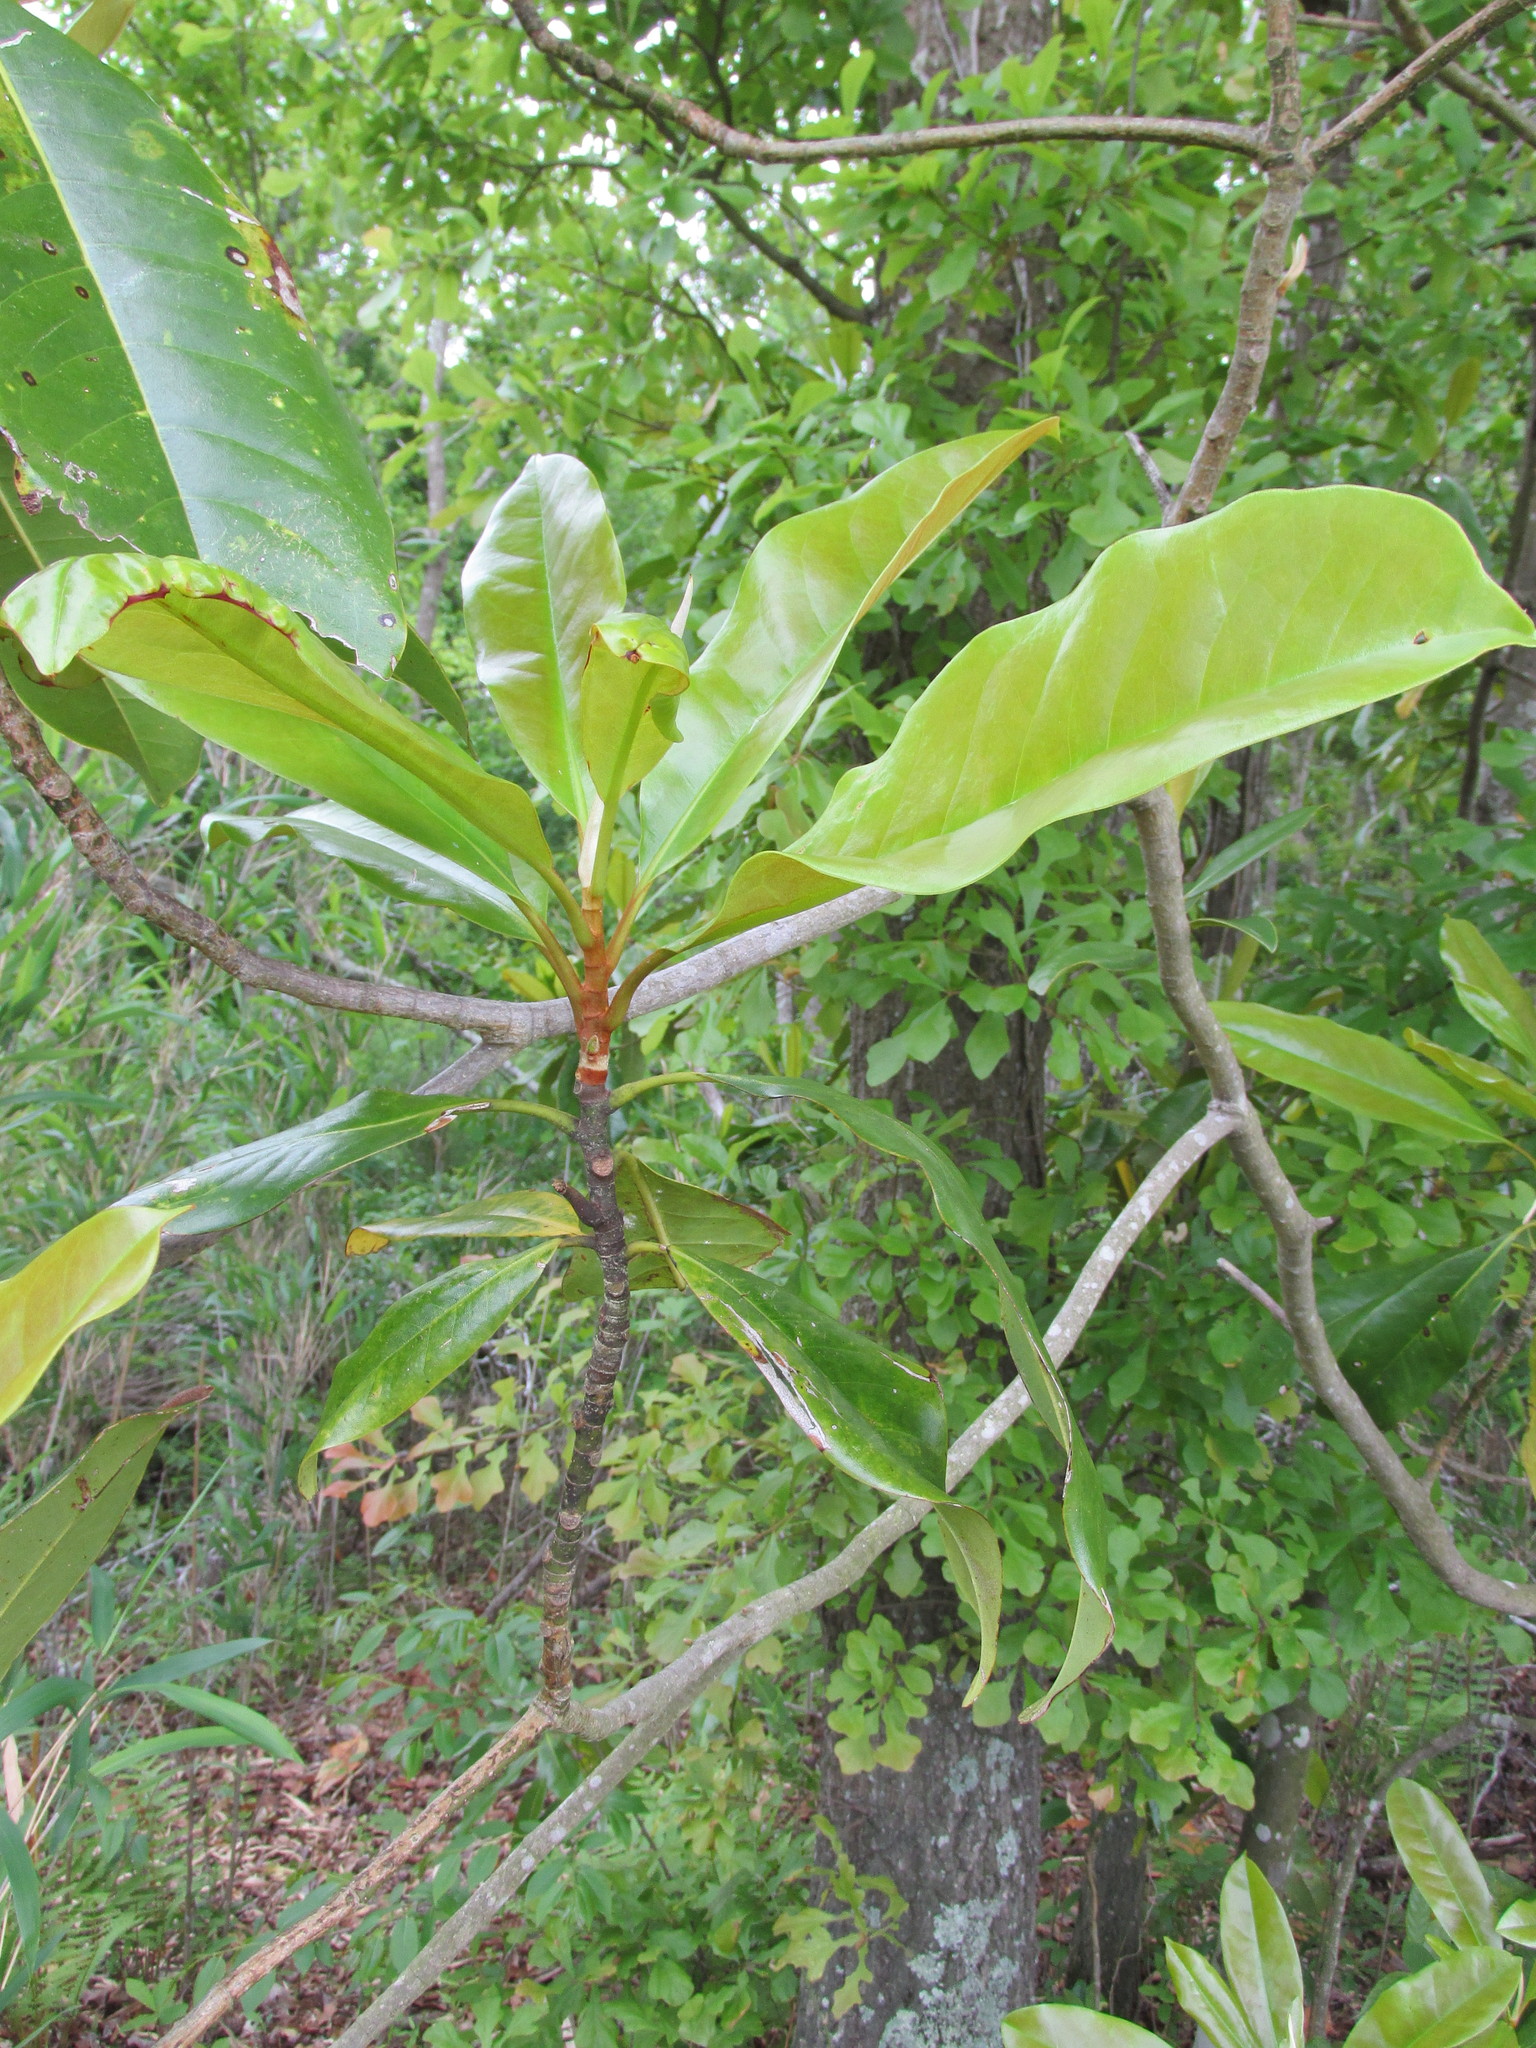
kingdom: Plantae
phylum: Tracheophyta
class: Magnoliopsida
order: Magnoliales
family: Magnoliaceae
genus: Magnolia
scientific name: Magnolia grandiflora
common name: Southern magnolia
